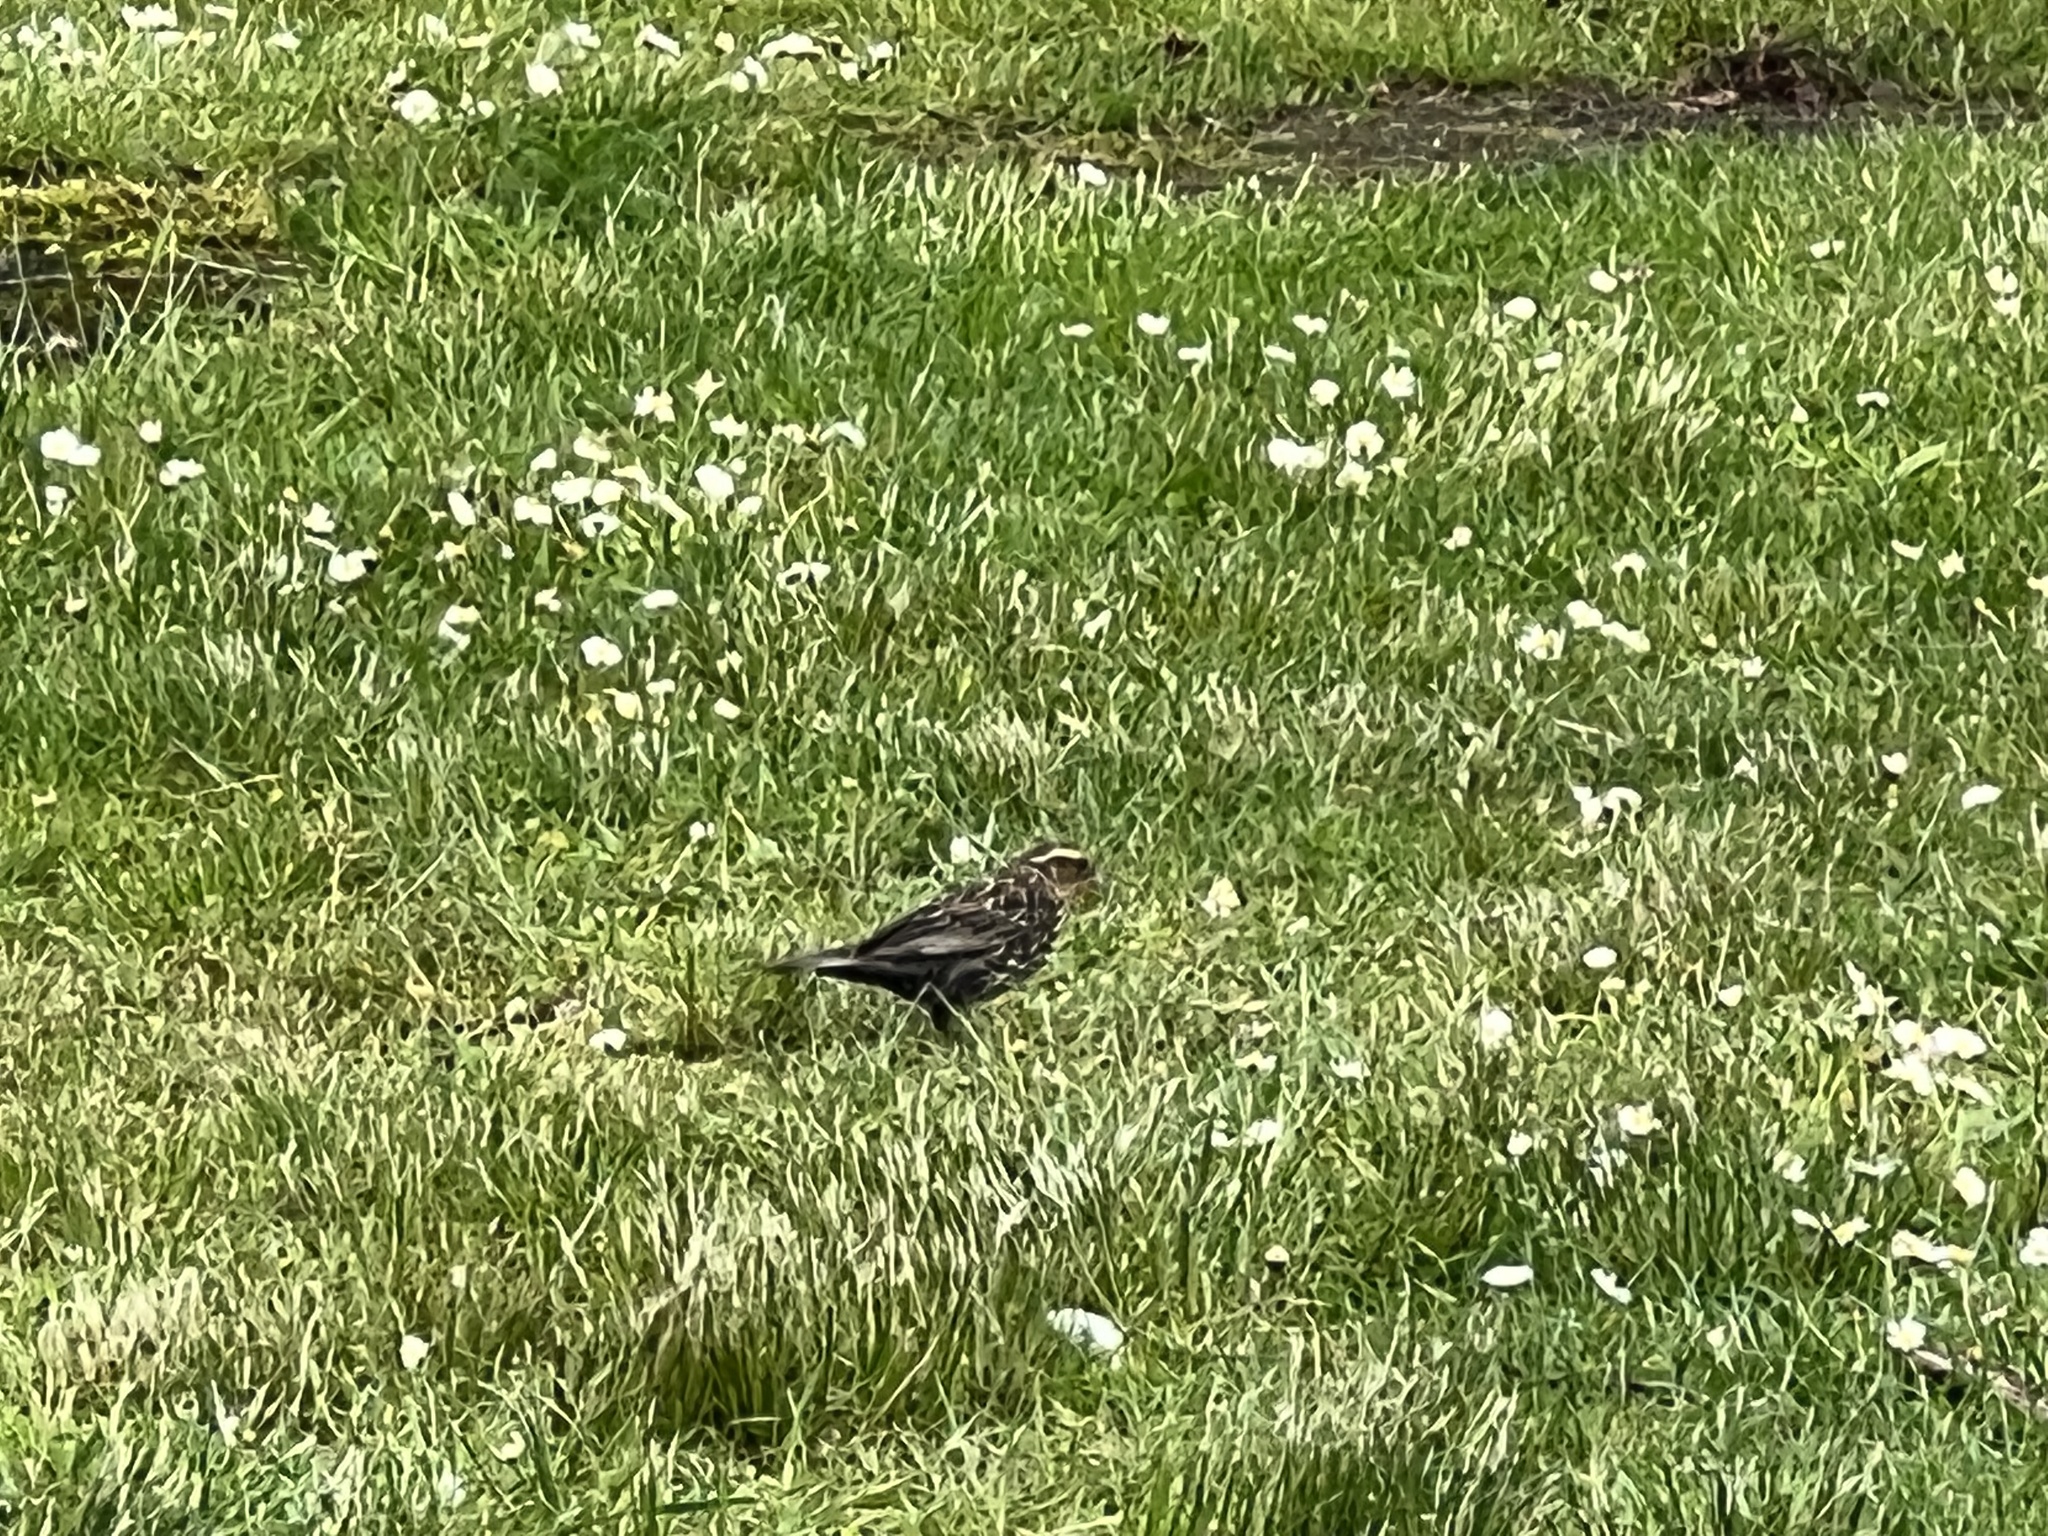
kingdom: Animalia
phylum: Chordata
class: Aves
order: Passeriformes
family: Icteridae
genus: Agelaius
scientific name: Agelaius phoeniceus
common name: Red-winged blackbird
